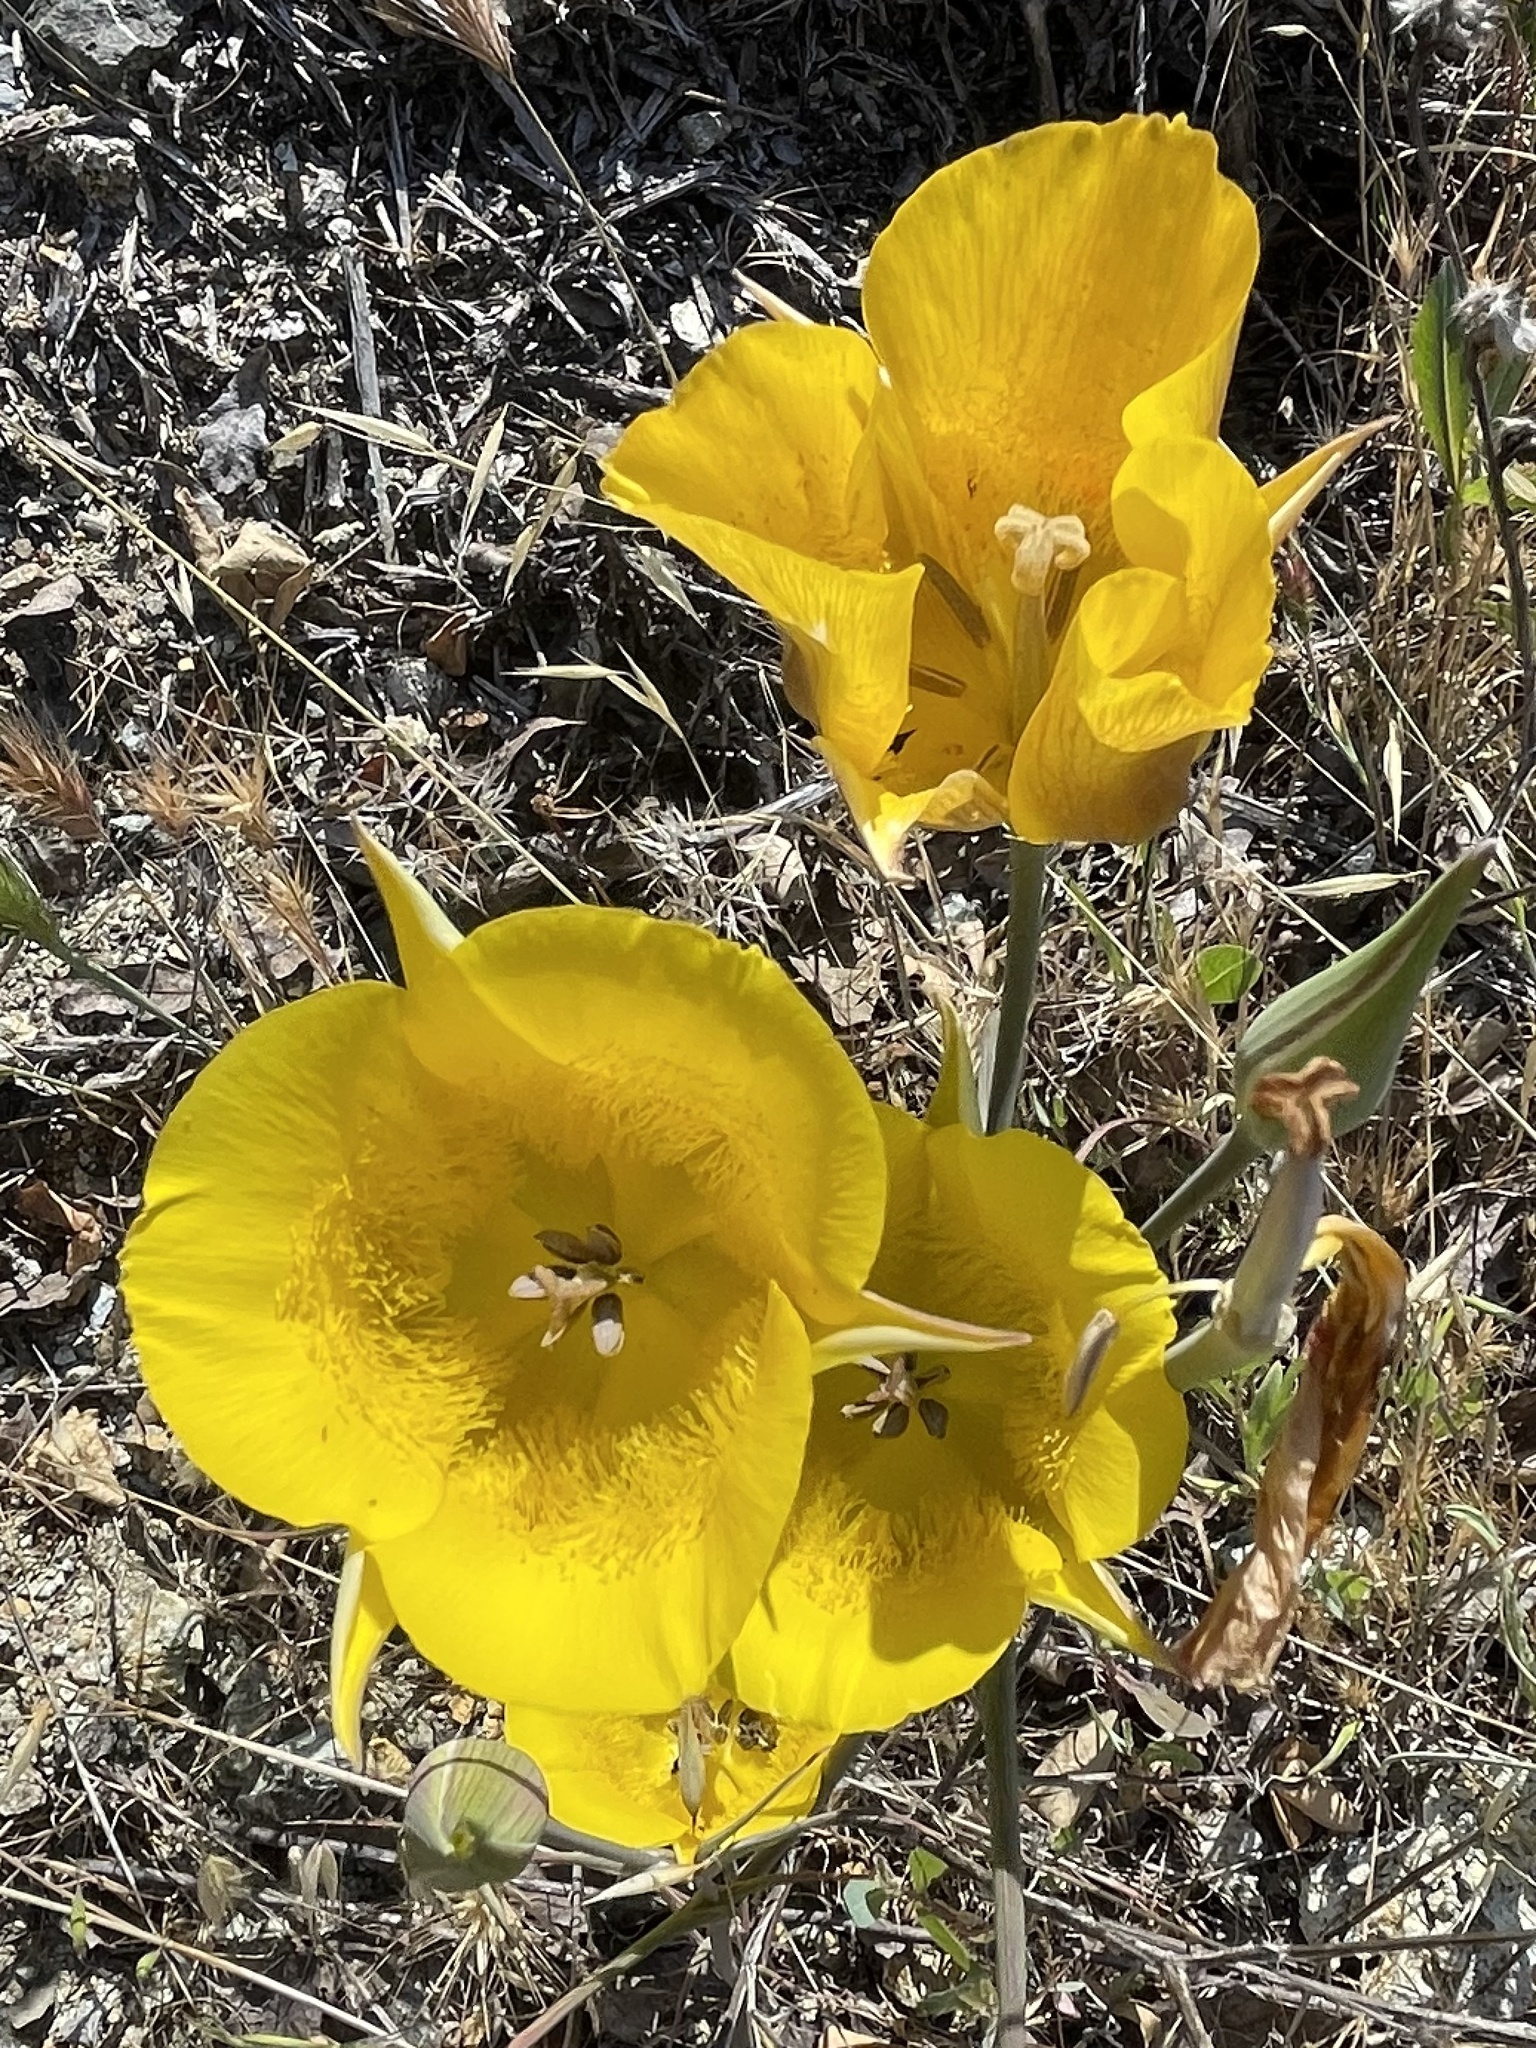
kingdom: Plantae
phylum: Tracheophyta
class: Liliopsida
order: Liliales
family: Liliaceae
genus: Calochortus
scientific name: Calochortus clavatus
